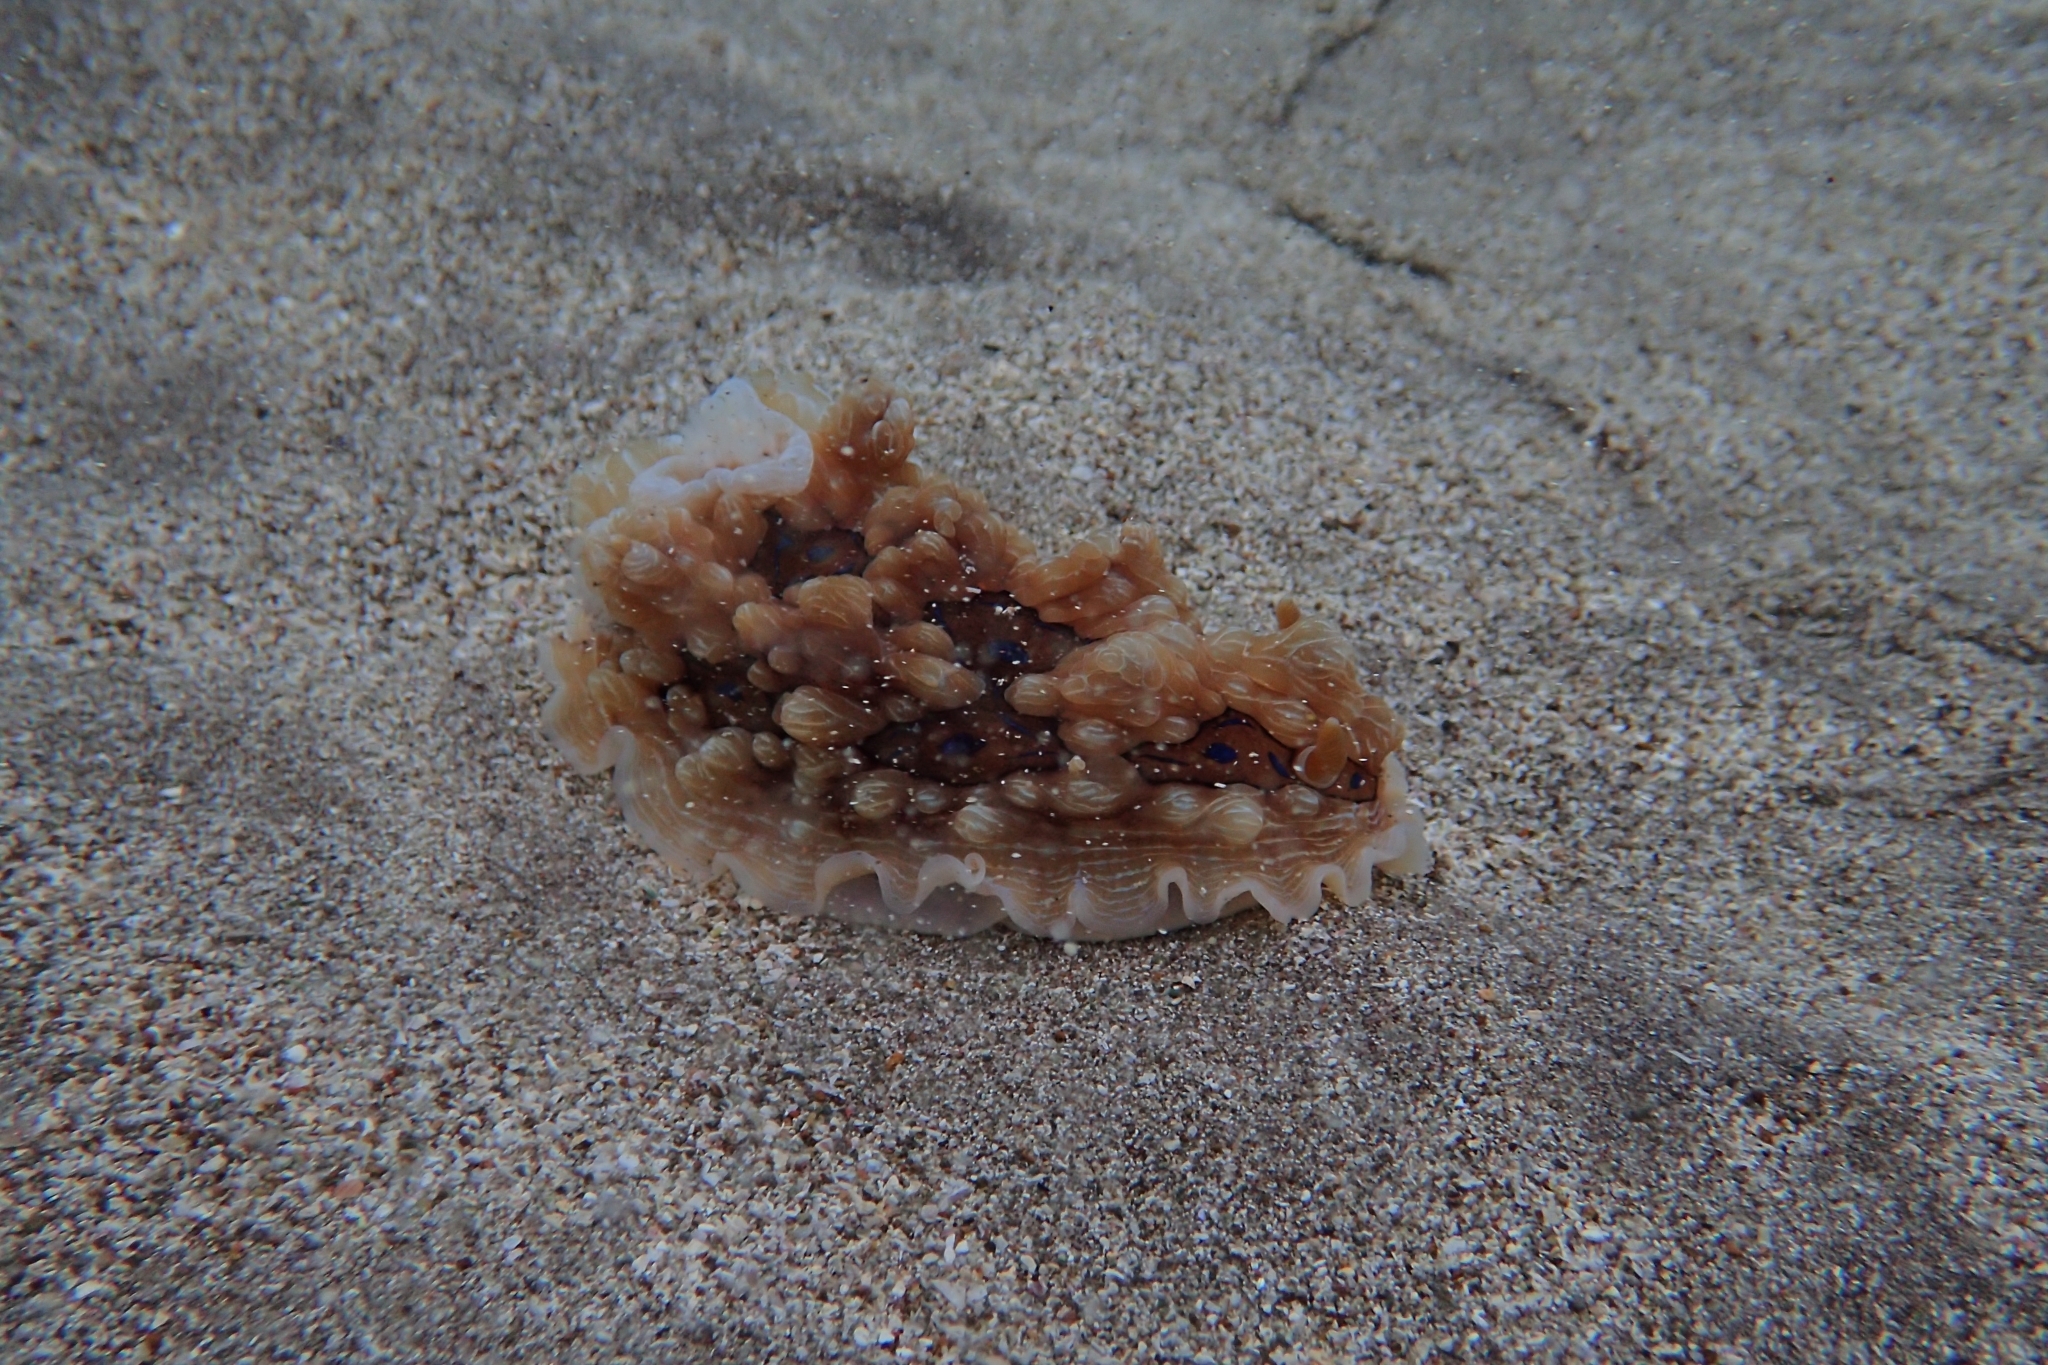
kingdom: Animalia
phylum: Mollusca
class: Gastropoda
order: Nudibranchia
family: Dendrodorididae
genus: Dendrodoris
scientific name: Dendrodoris krusensternii
